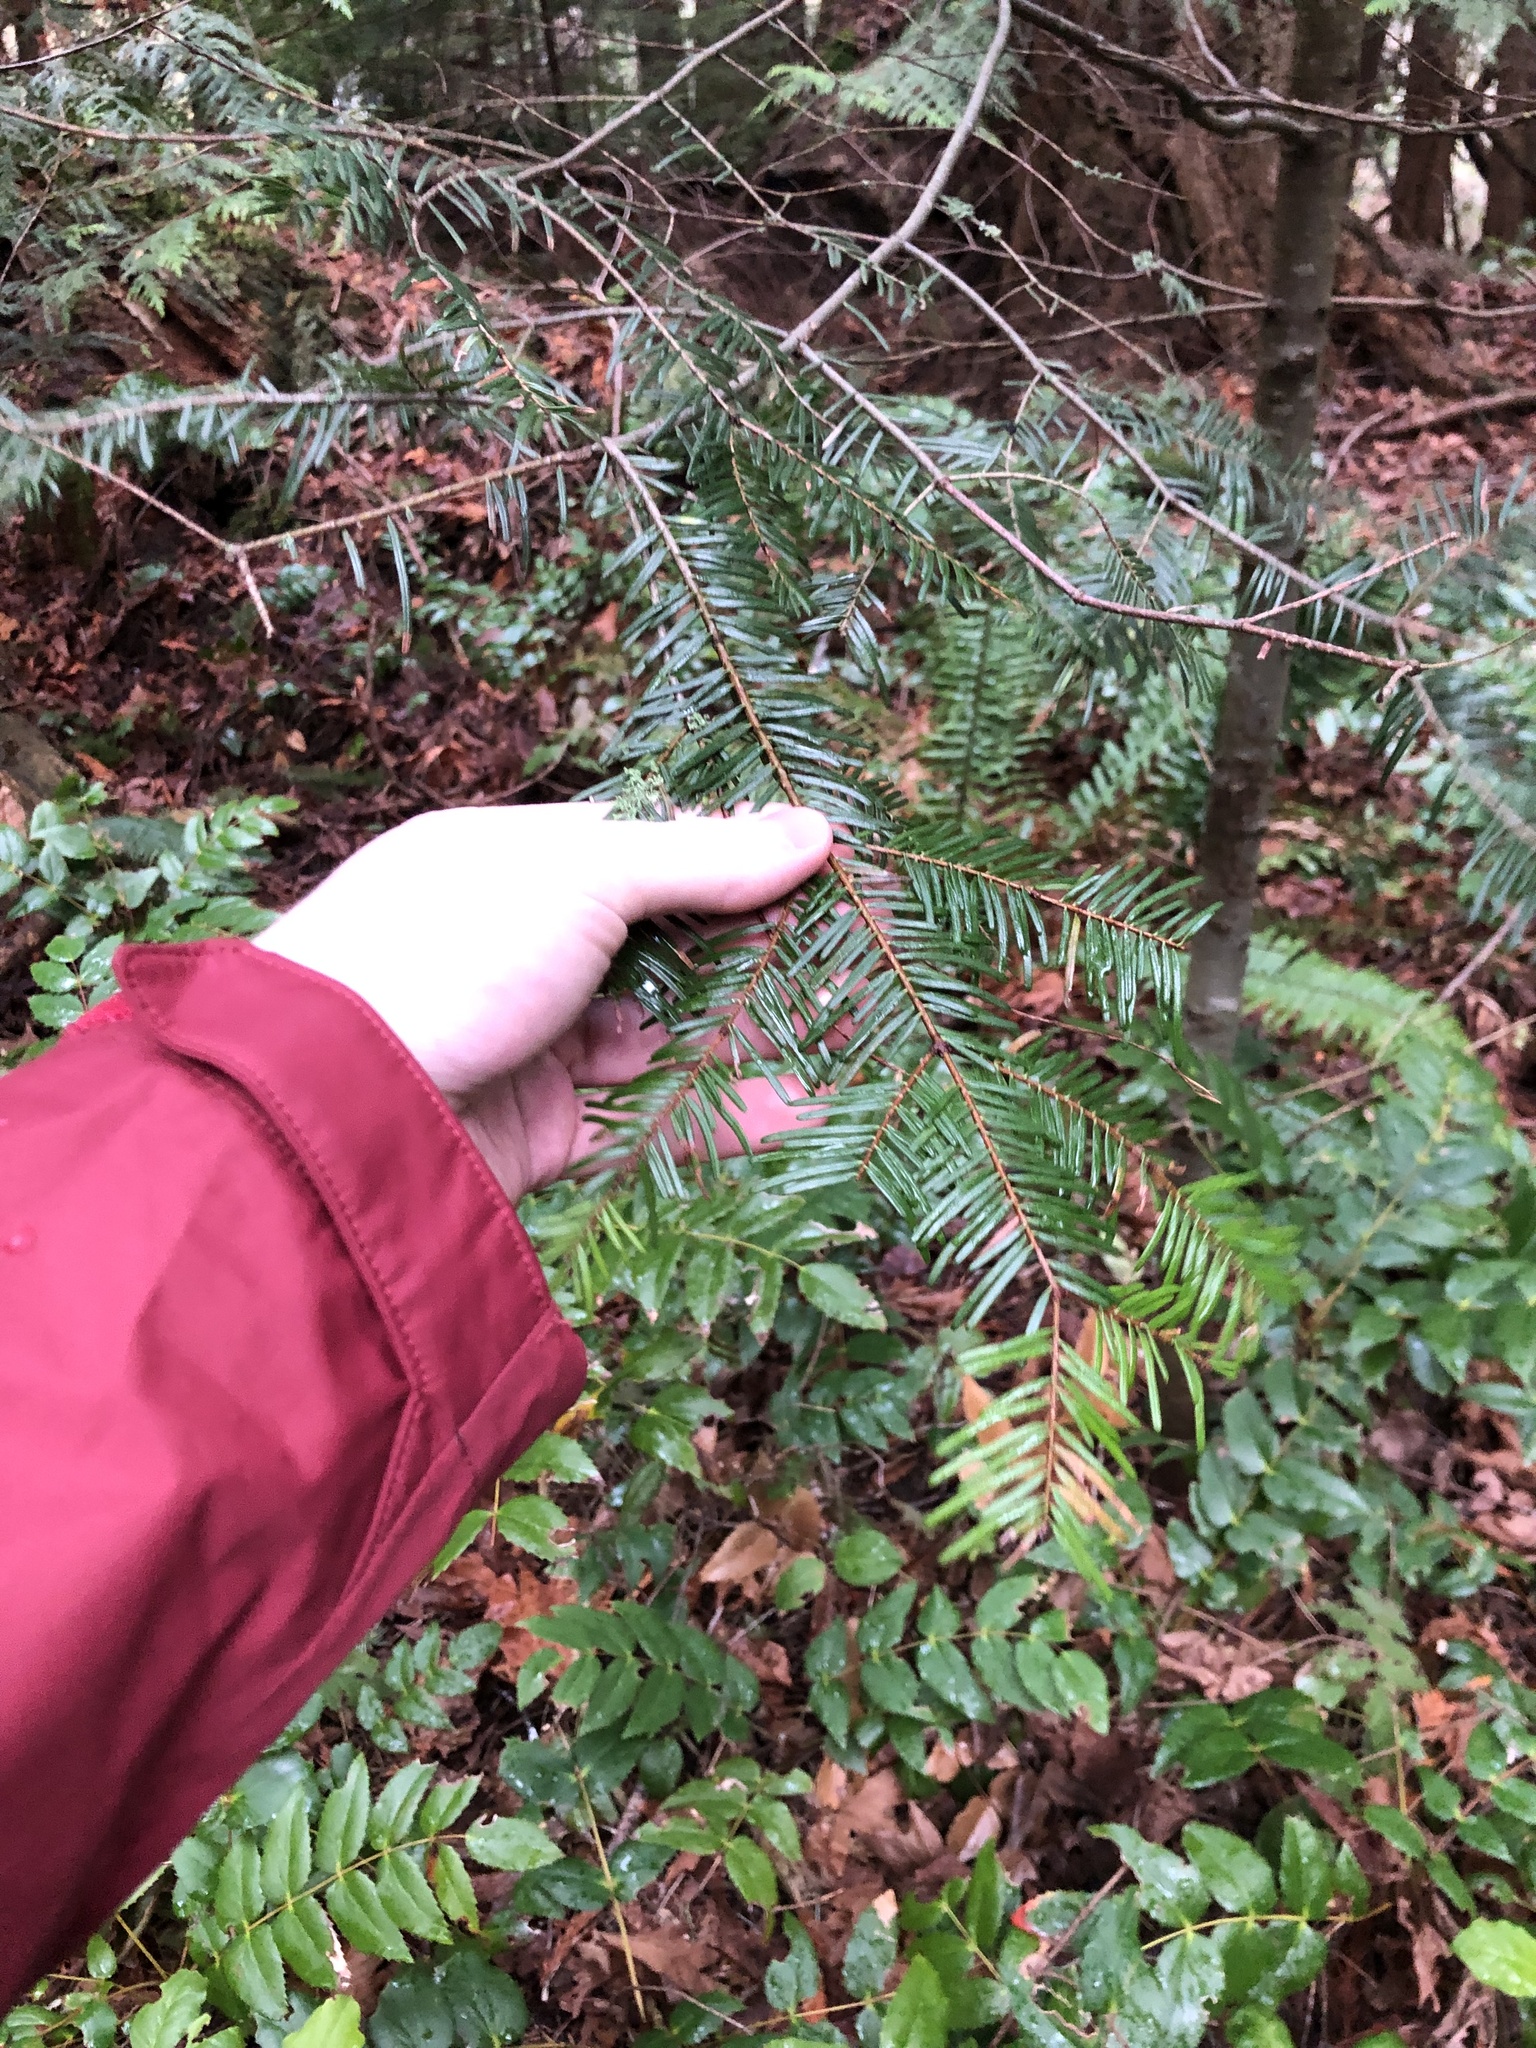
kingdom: Plantae
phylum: Tracheophyta
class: Pinopsida
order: Pinales
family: Pinaceae
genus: Abies
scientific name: Abies grandis
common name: Giant fir
